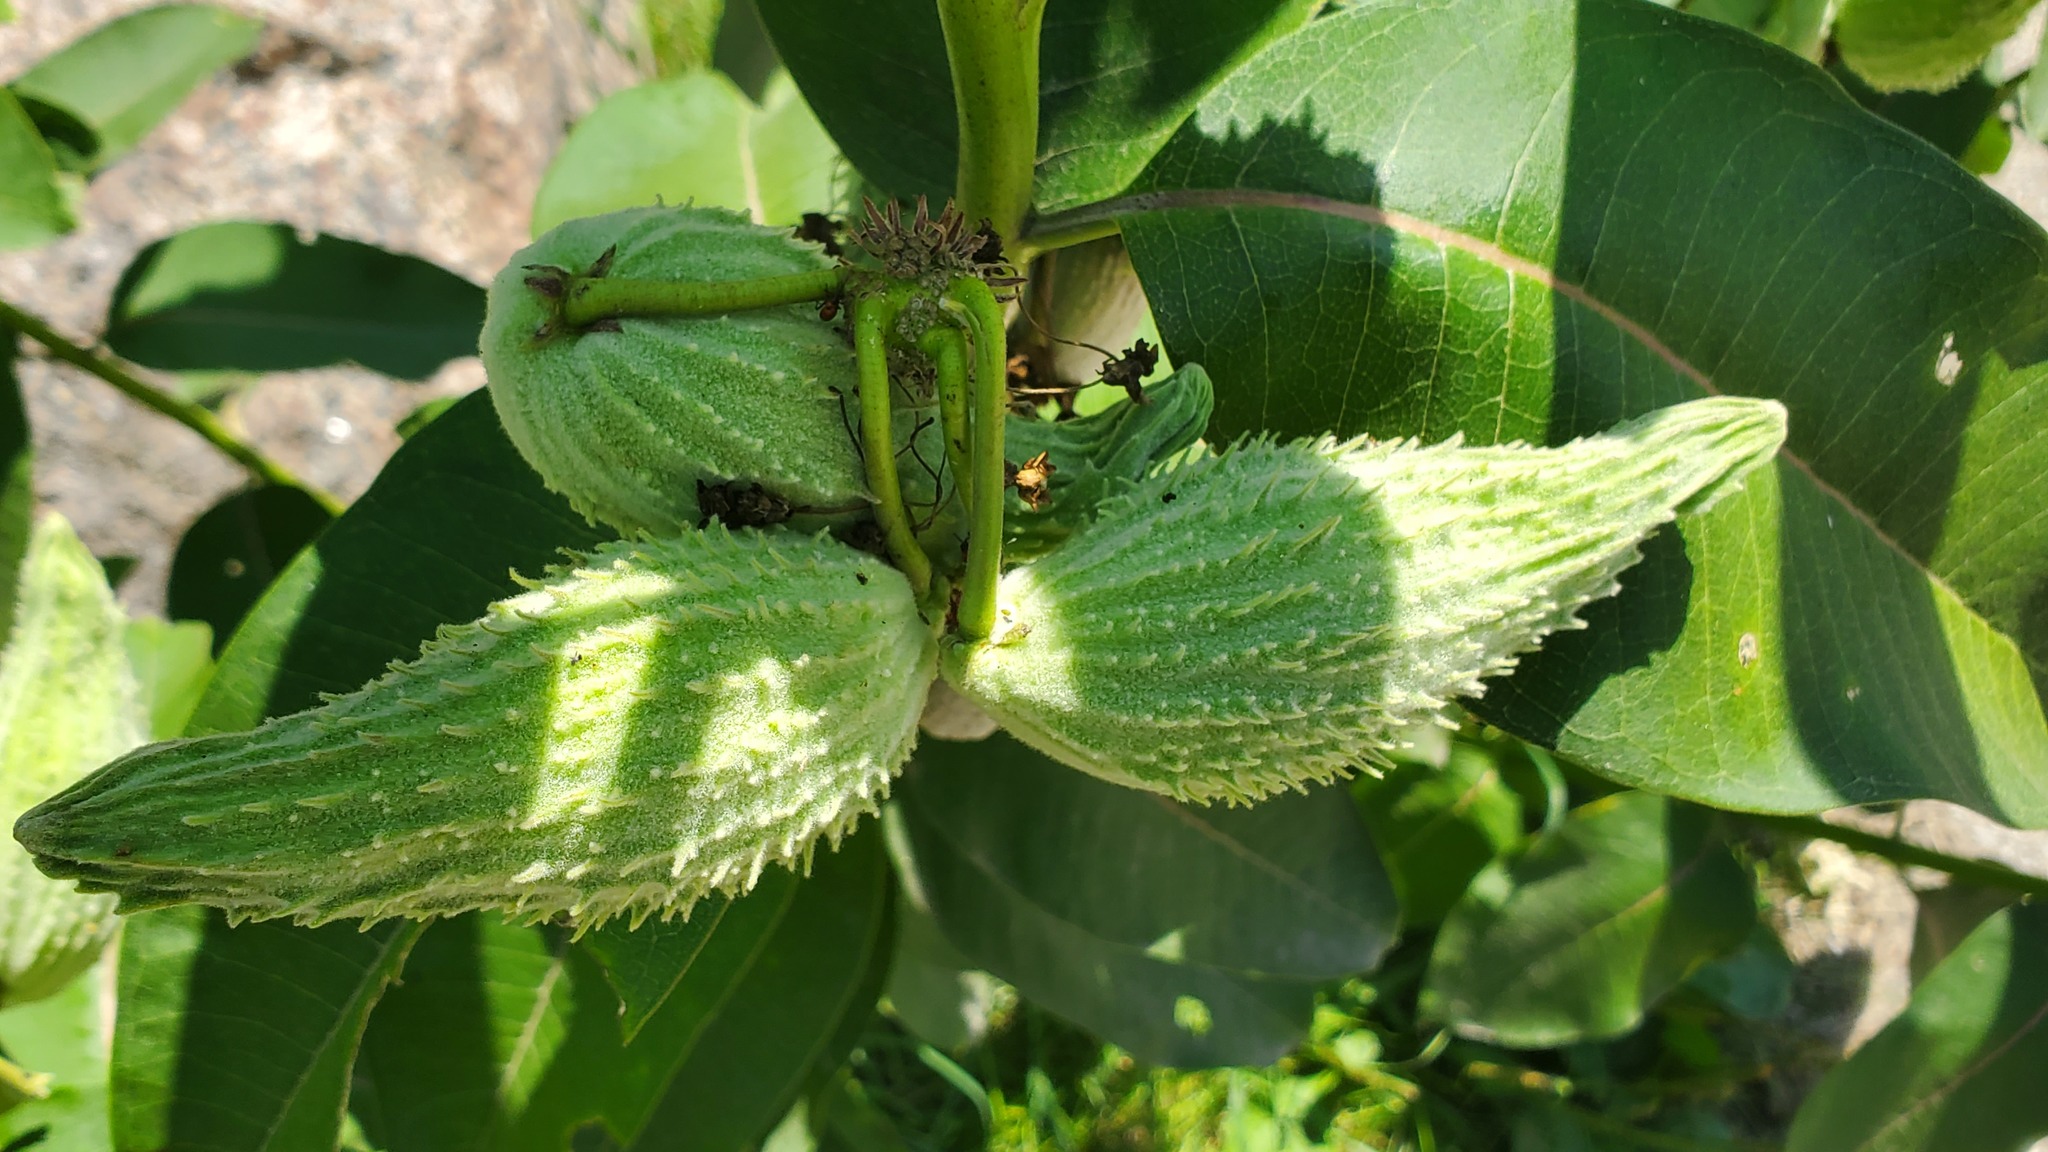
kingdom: Plantae
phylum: Tracheophyta
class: Magnoliopsida
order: Gentianales
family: Apocynaceae
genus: Asclepias
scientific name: Asclepias syriaca
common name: Common milkweed
